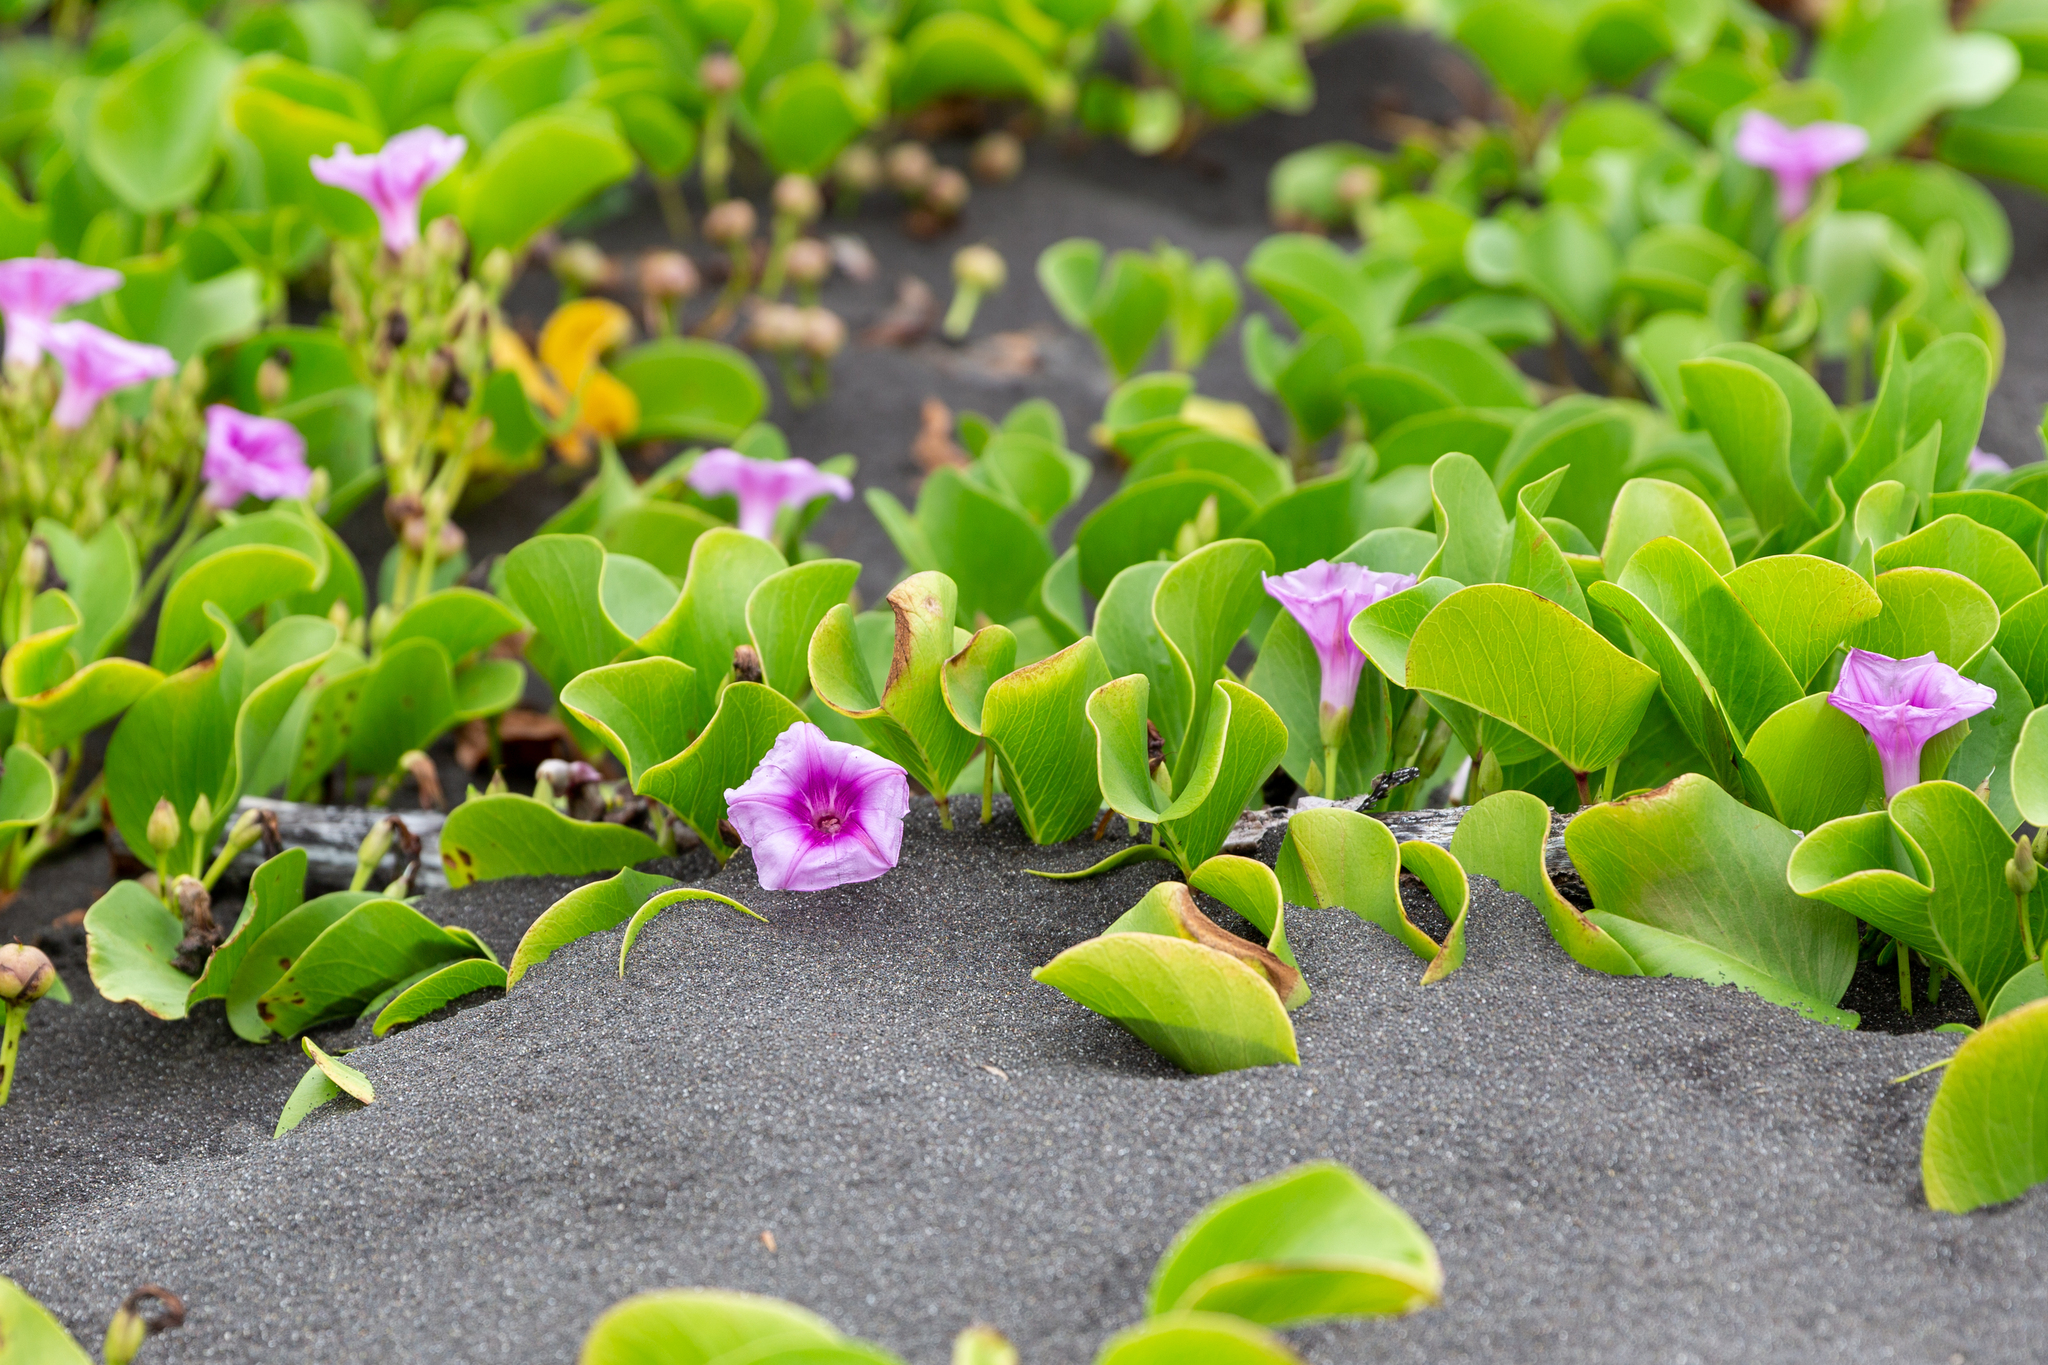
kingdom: Plantae
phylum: Tracheophyta
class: Magnoliopsida
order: Solanales
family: Convolvulaceae
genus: Ipomoea
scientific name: Ipomoea pes-caprae
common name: Beach morning glory
